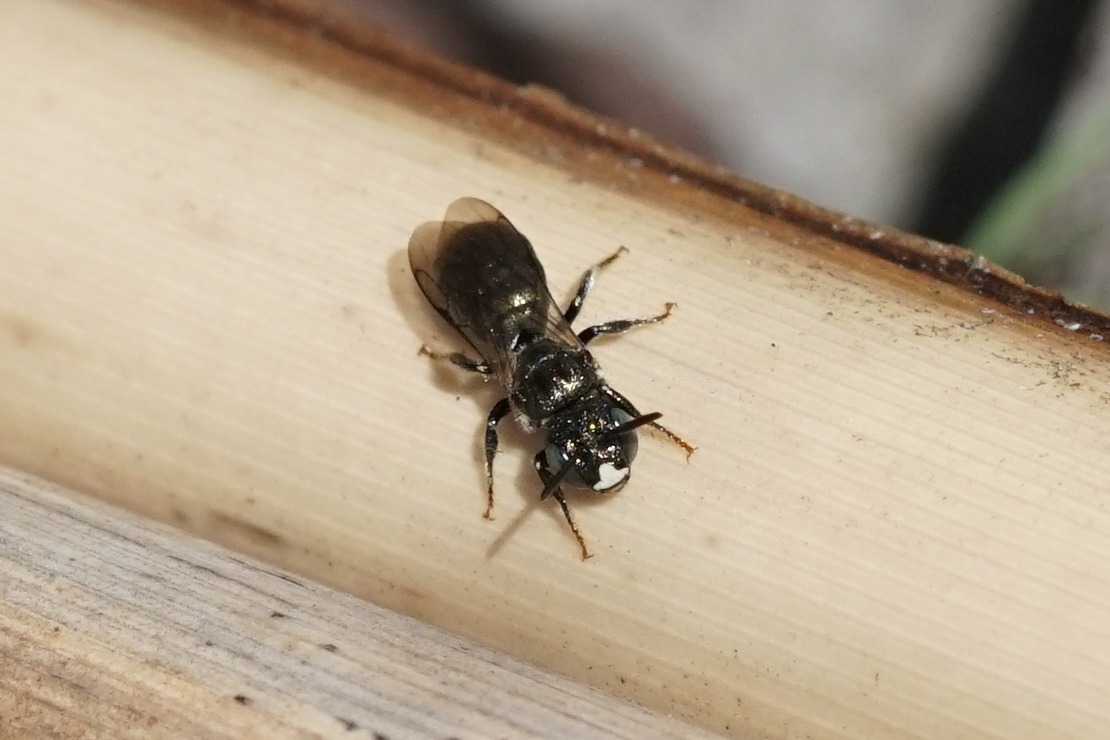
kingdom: Animalia
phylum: Arthropoda
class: Insecta
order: Hymenoptera
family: Apidae
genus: Zadontomerus
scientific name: Zadontomerus
